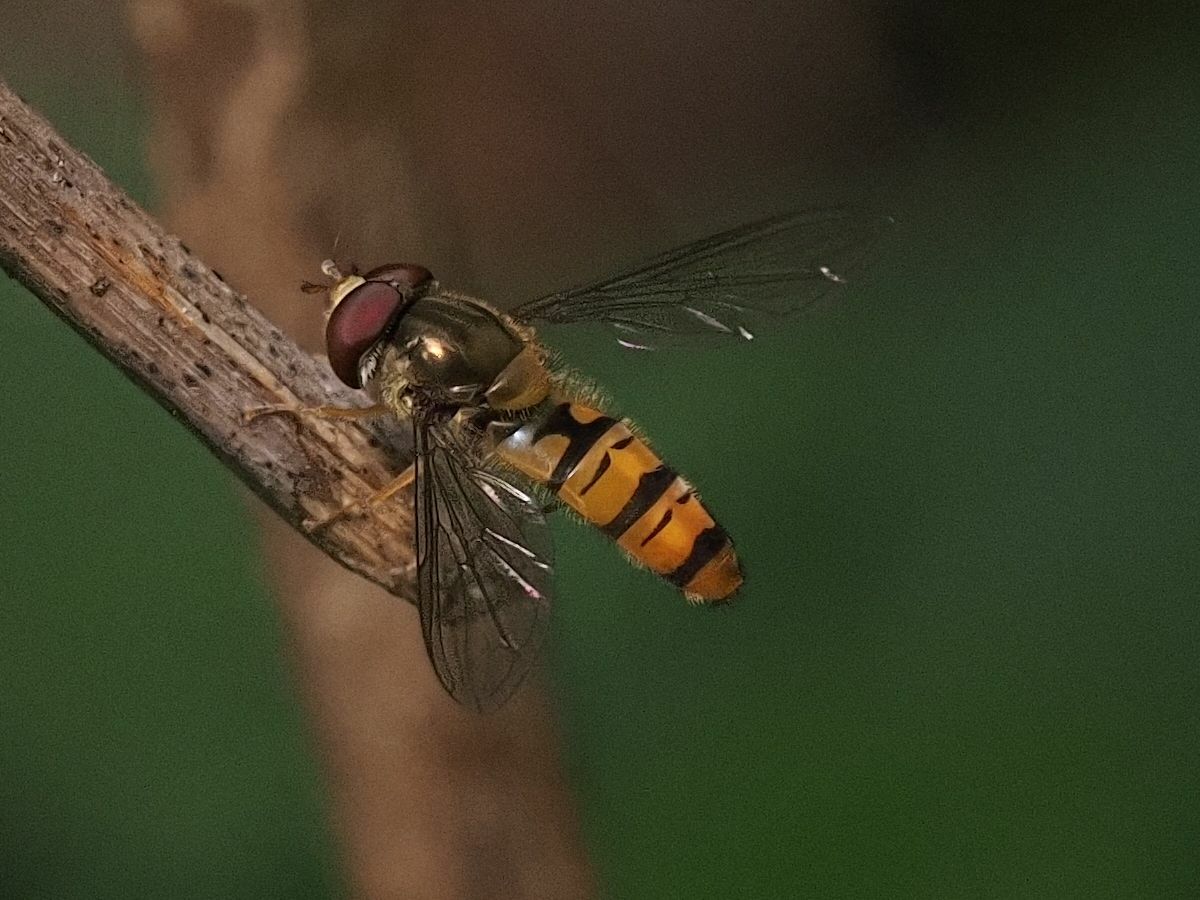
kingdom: Animalia
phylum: Arthropoda
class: Insecta
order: Diptera
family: Syrphidae
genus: Episyrphus
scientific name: Episyrphus balteatus
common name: Marmalade hoverfly
